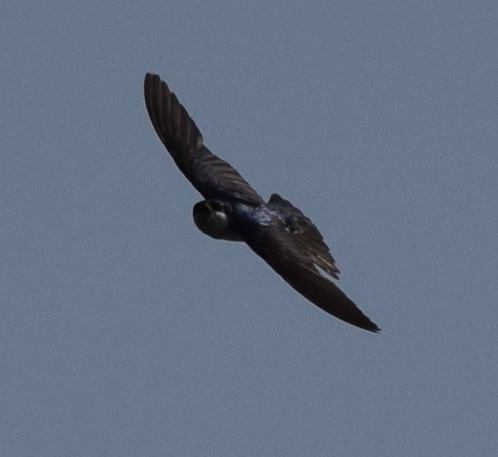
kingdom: Animalia
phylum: Chordata
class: Aves
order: Passeriformes
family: Hirundinidae
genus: Tachycineta
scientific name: Tachycineta bicolor
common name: Tree swallow
